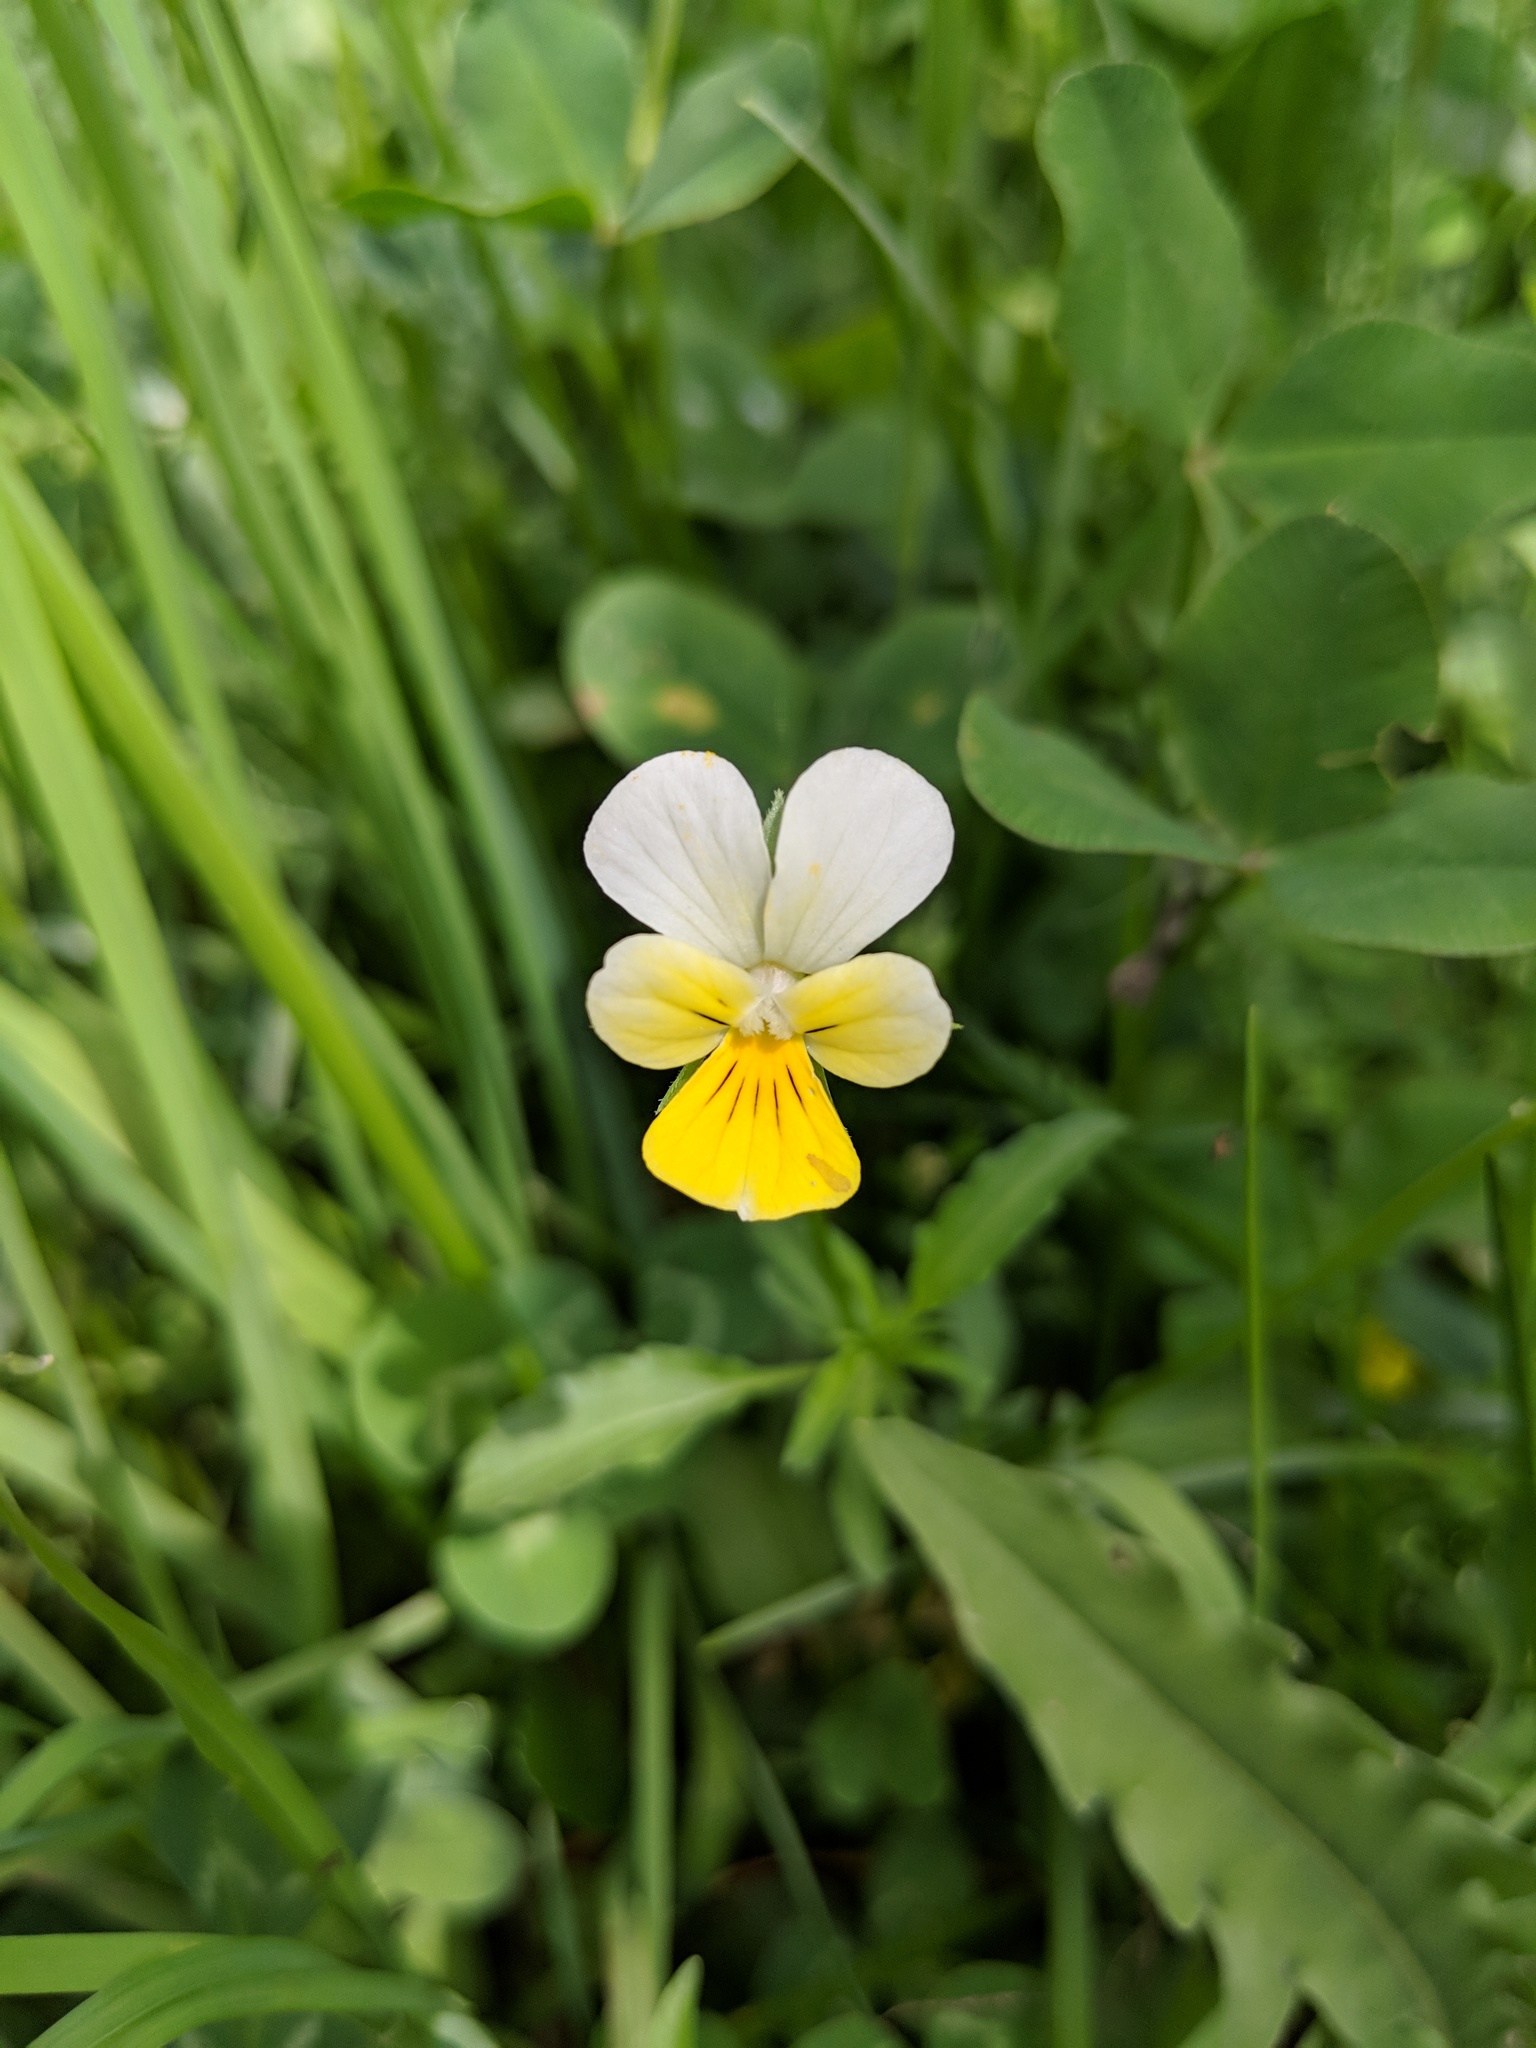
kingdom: Plantae
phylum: Tracheophyta
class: Magnoliopsida
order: Malpighiales
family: Violaceae
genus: Viola
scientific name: Viola tricolor
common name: Pansy
